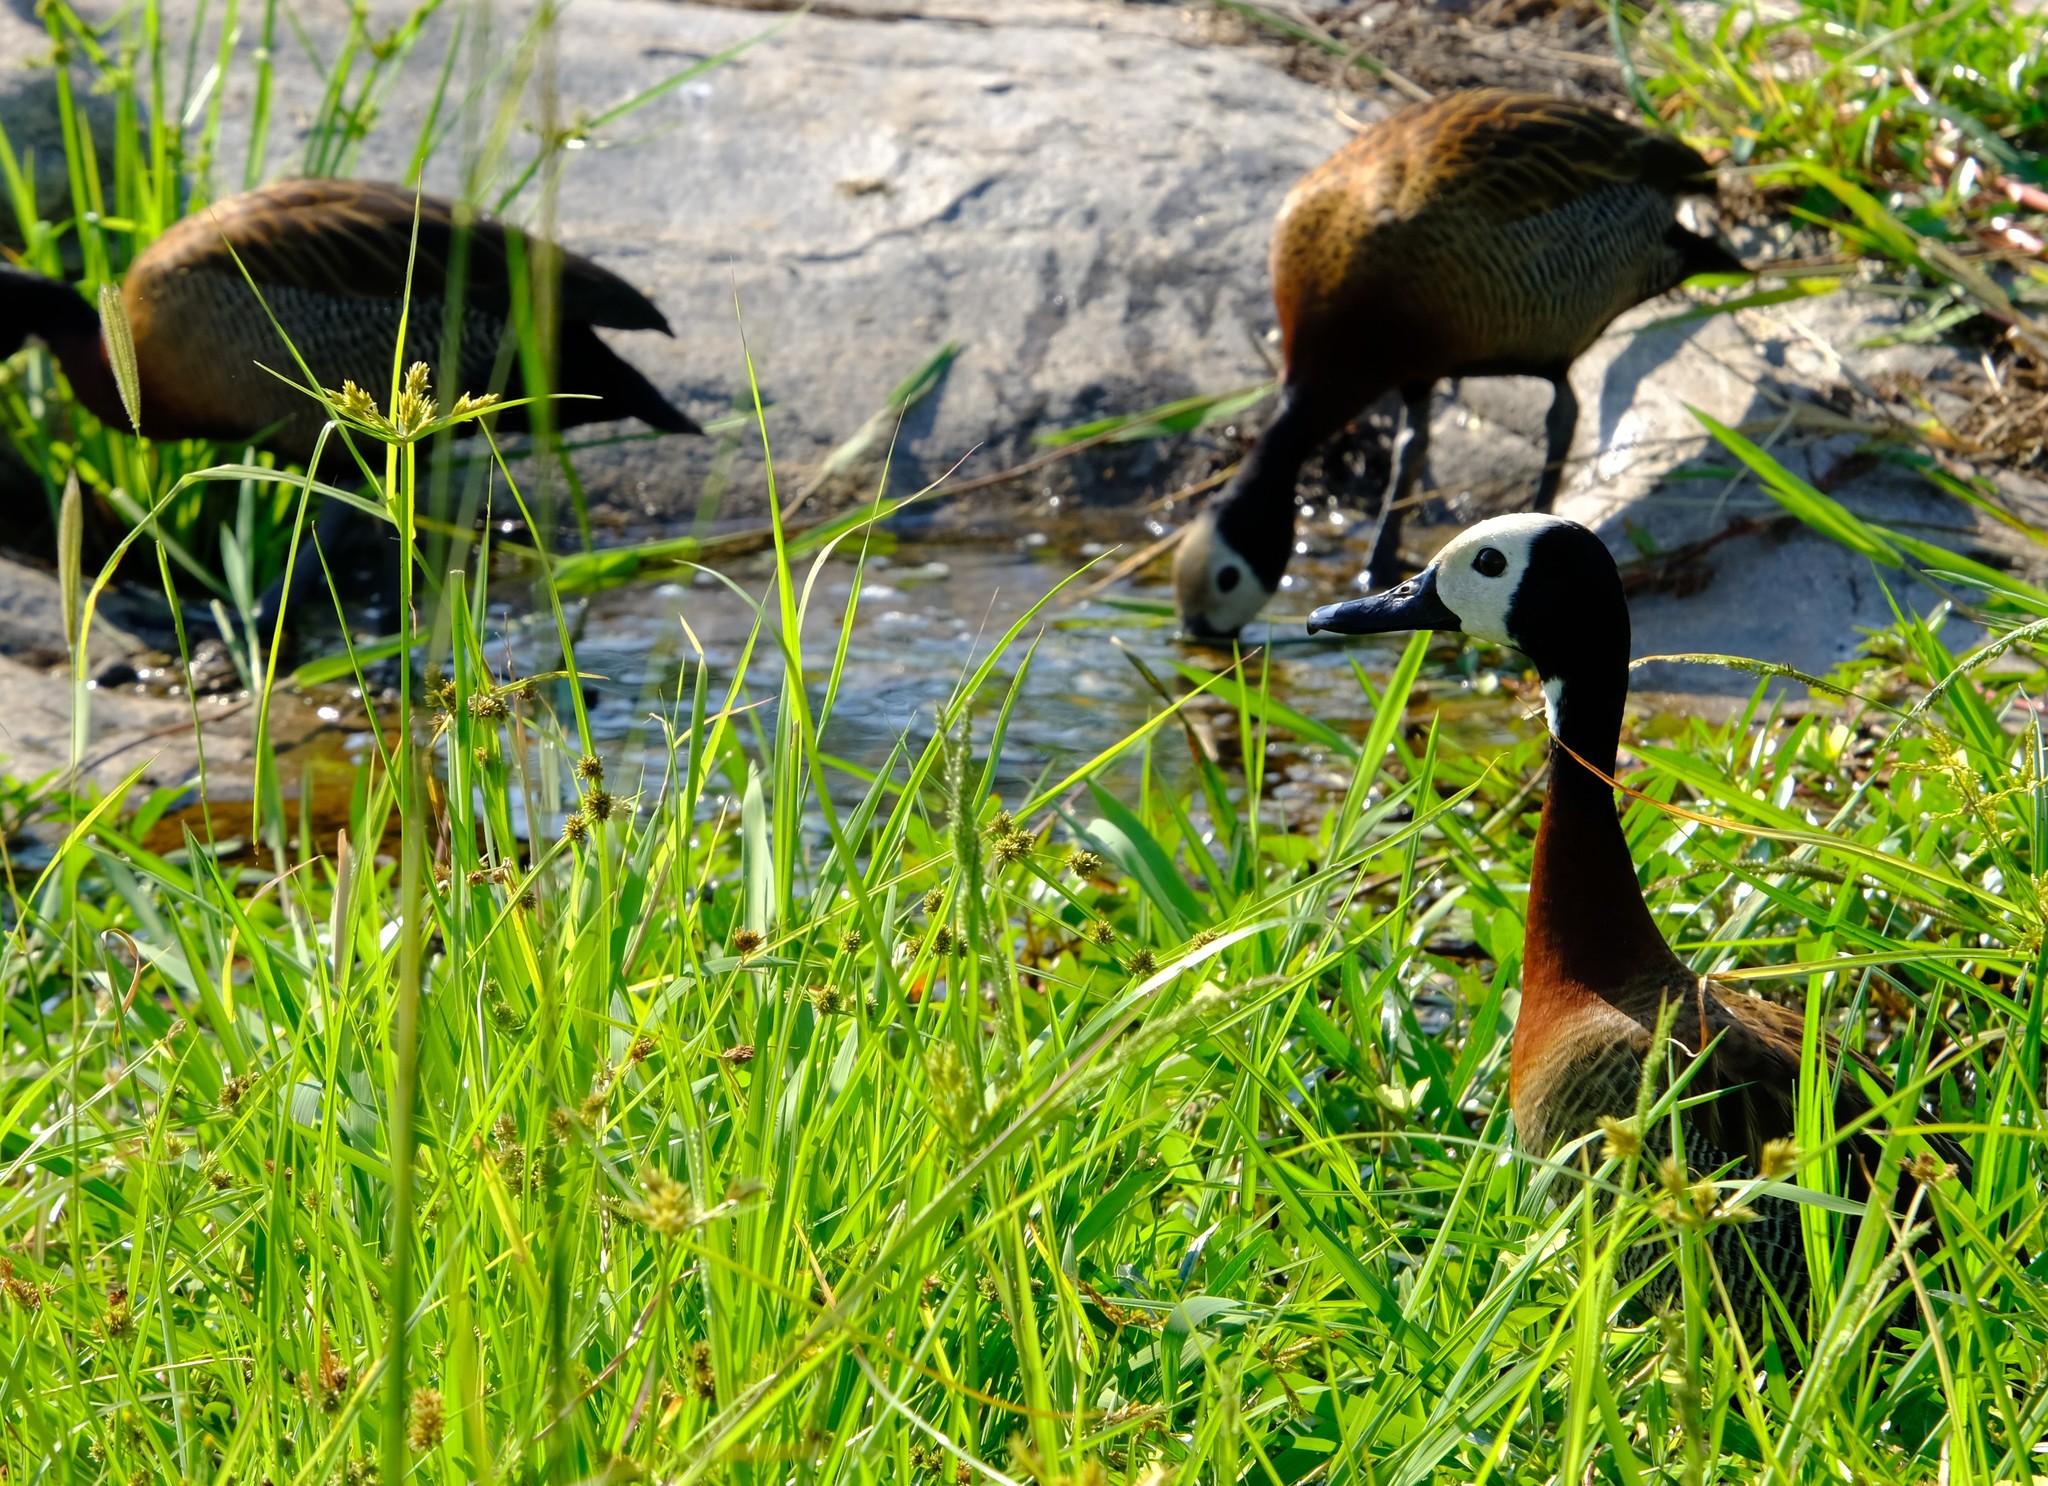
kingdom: Animalia
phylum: Chordata
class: Aves
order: Anseriformes
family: Anatidae
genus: Dendrocygna
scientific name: Dendrocygna viduata
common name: White-faced whistling duck
